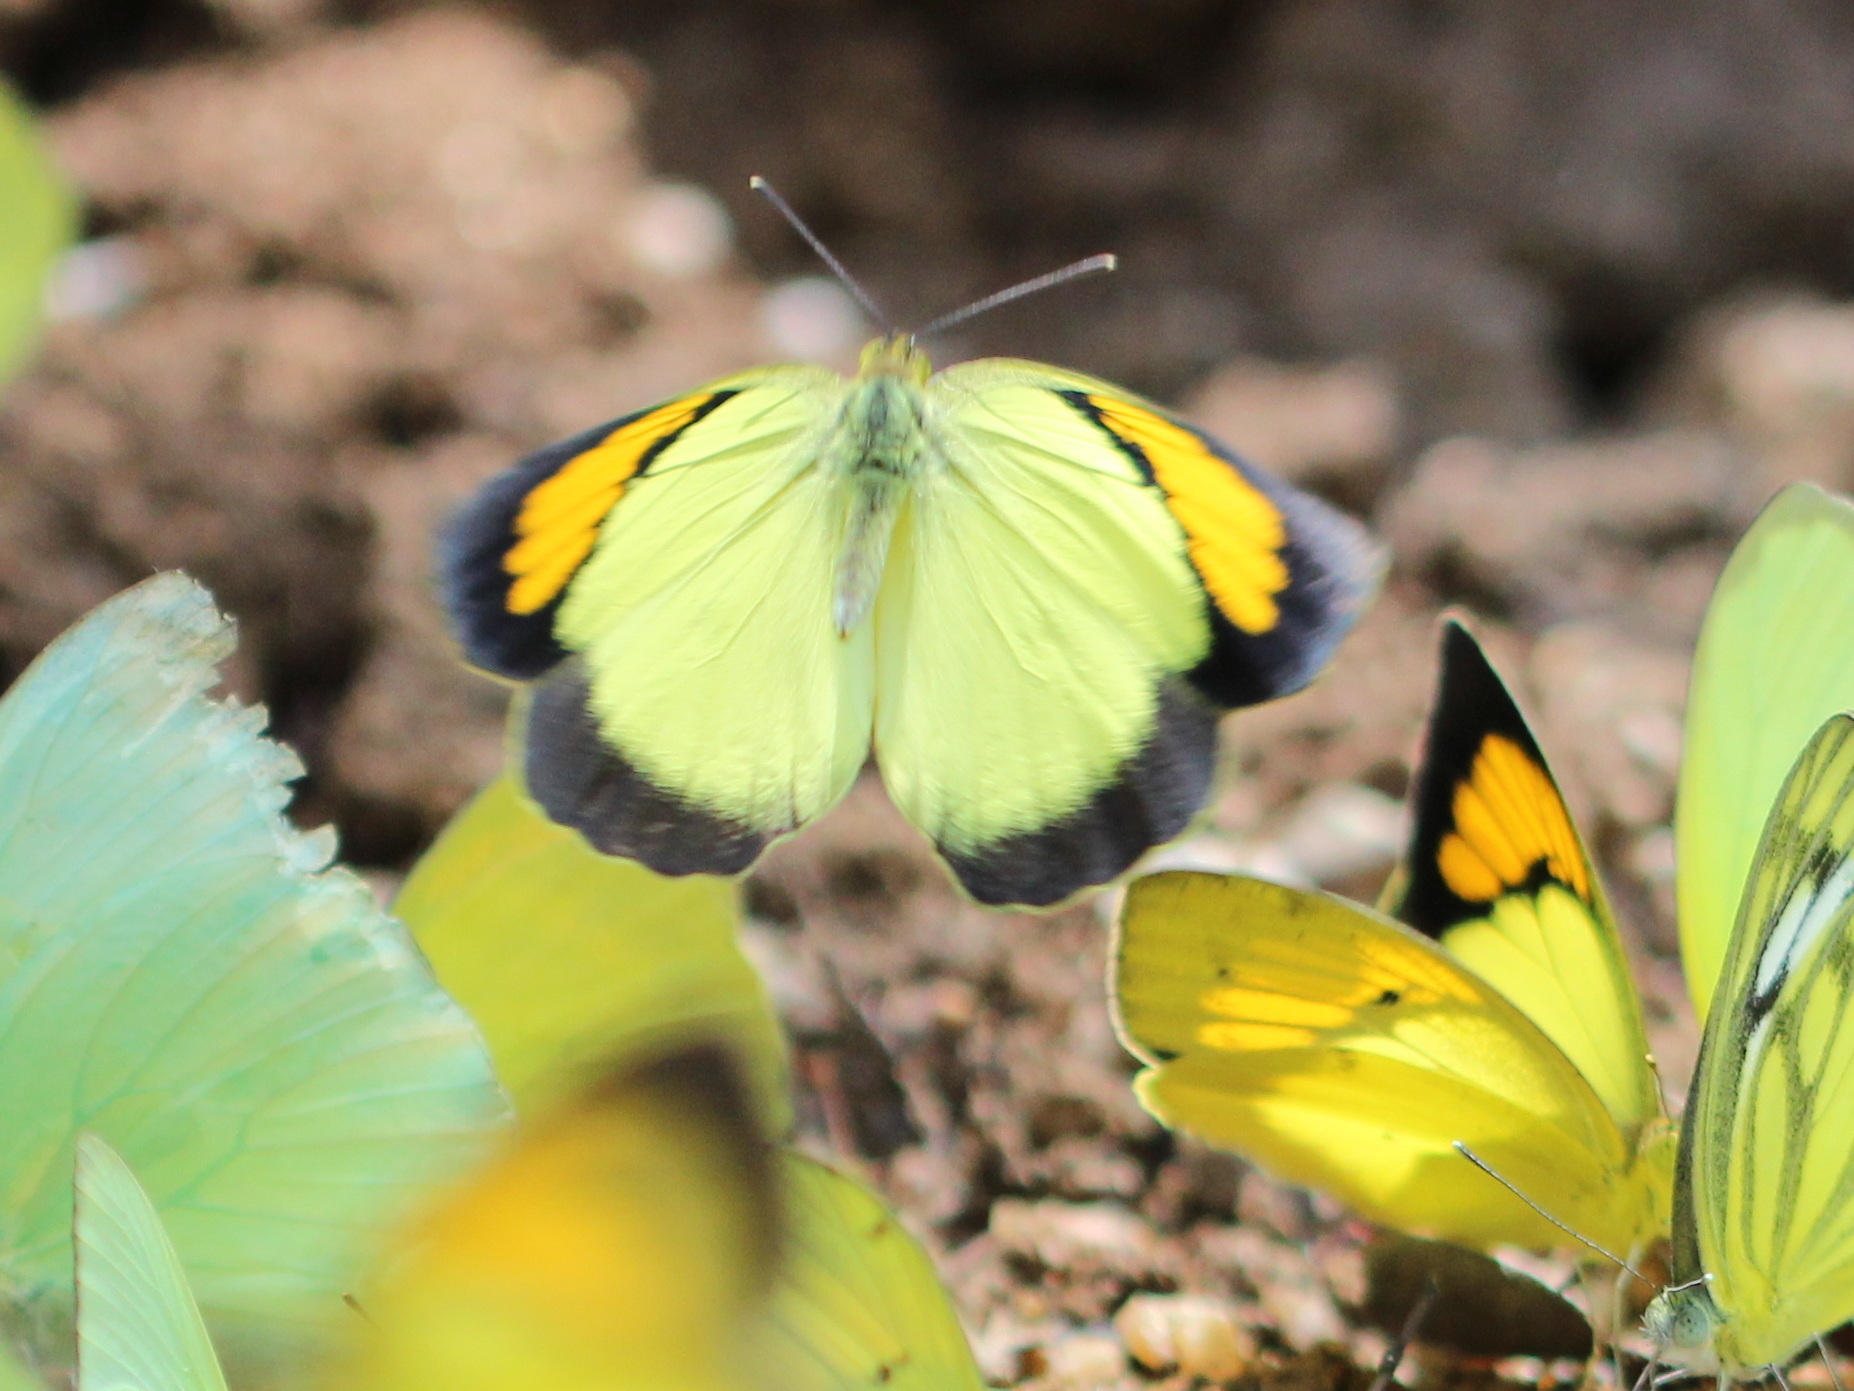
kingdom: Animalia
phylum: Arthropoda
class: Insecta
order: Lepidoptera
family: Pieridae
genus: Ixias
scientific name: Ixias pyrene
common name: Yellow orange tip
